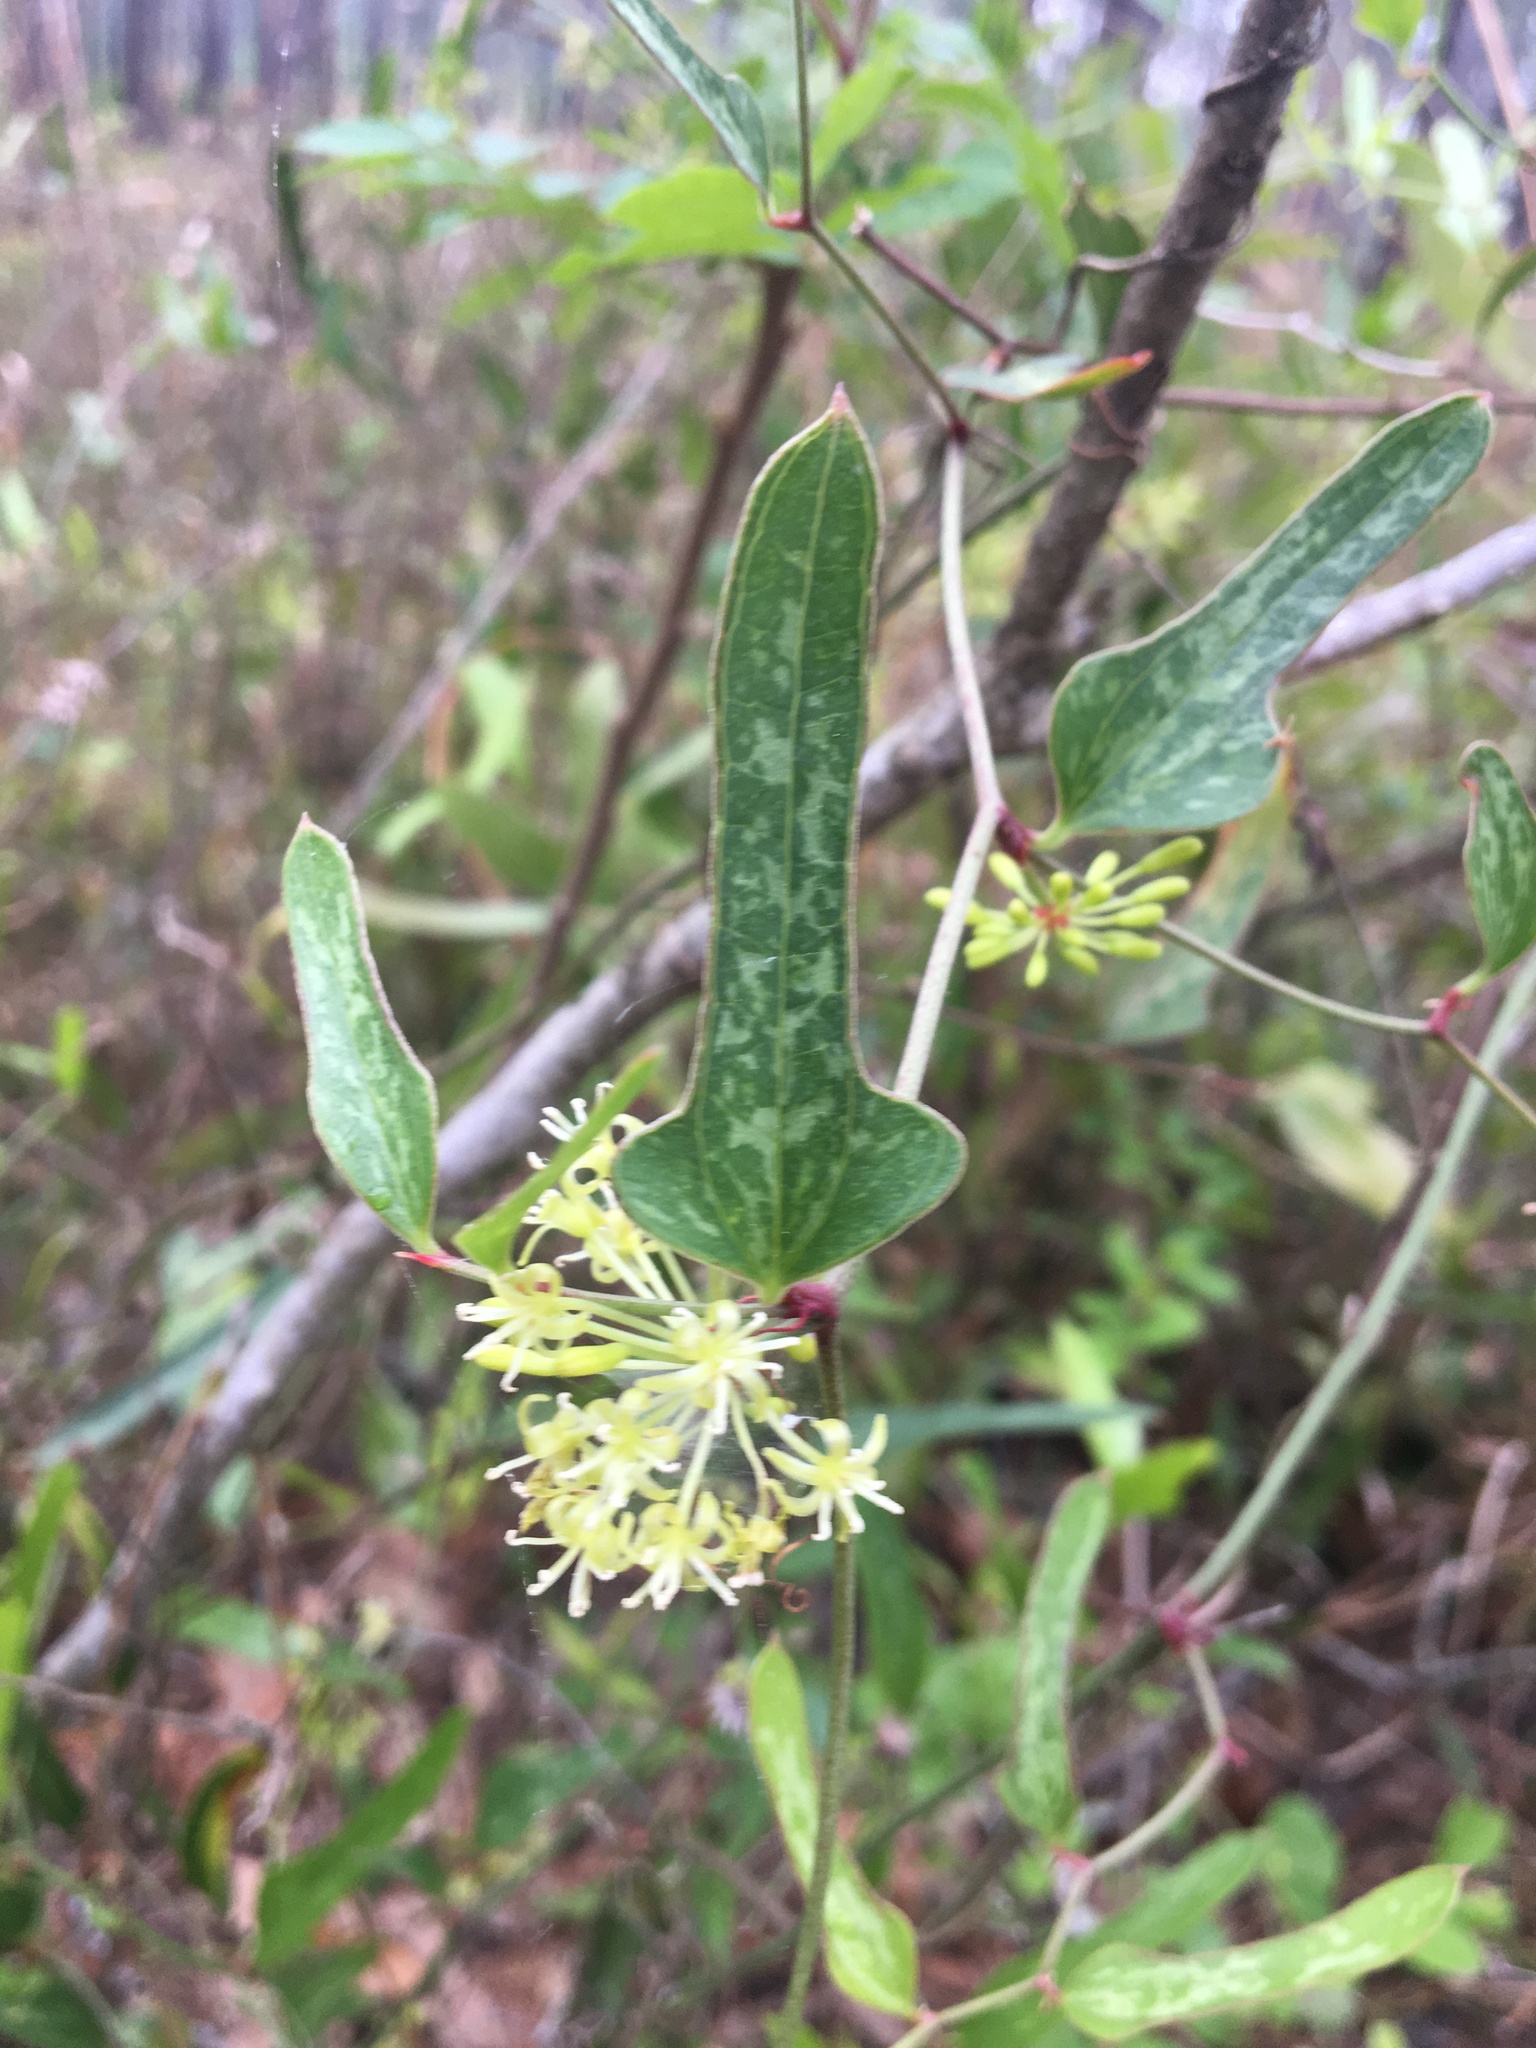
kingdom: Plantae
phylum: Tracheophyta
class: Liliopsida
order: Liliales
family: Smilacaceae
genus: Smilax
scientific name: Smilax auriculata
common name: Wild bamboo
